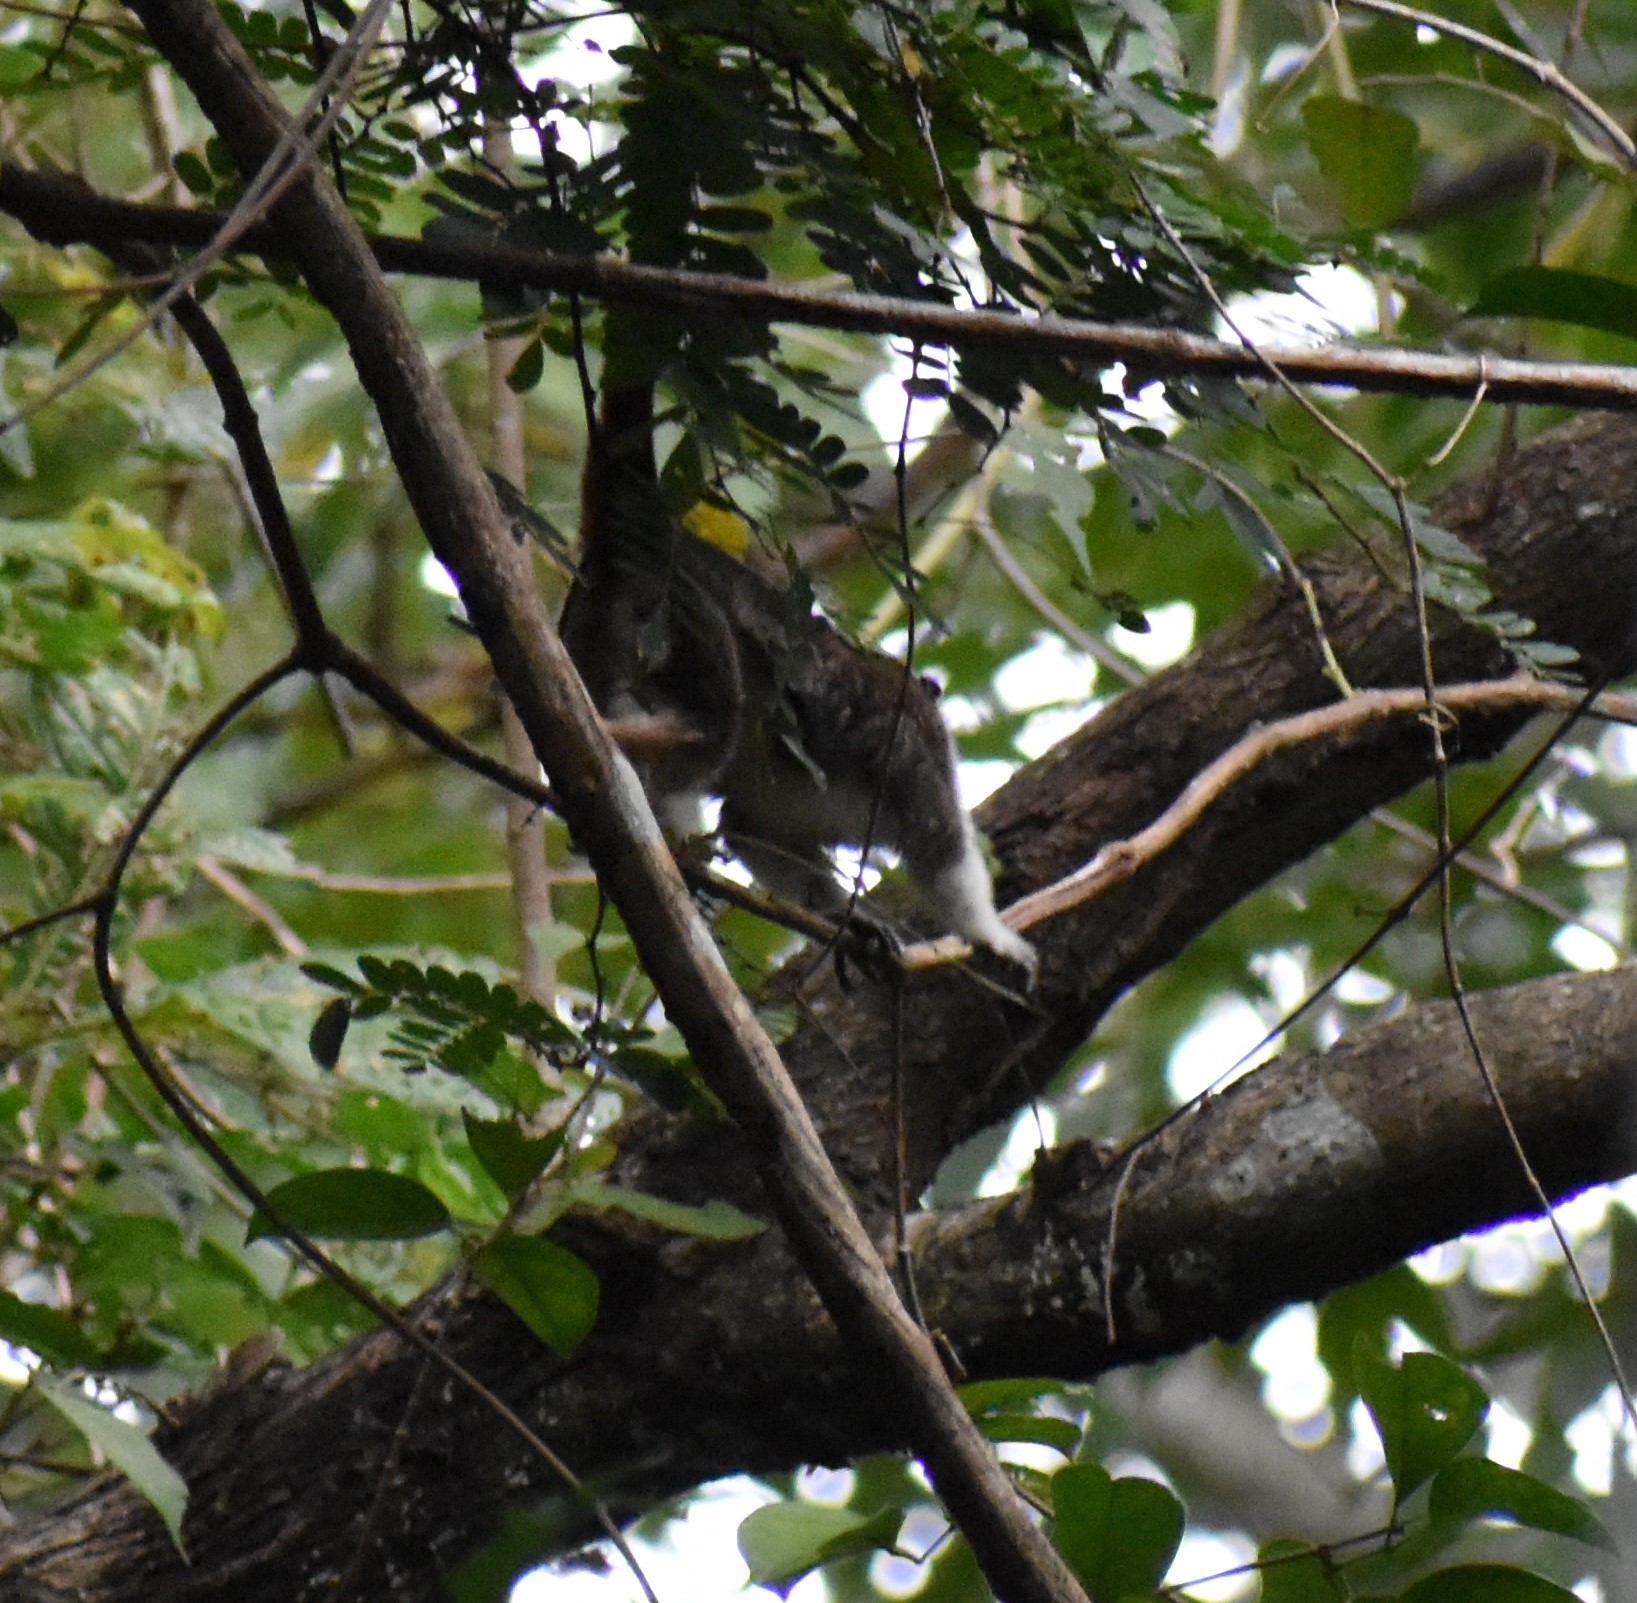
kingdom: Animalia
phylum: Chordata
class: Mammalia
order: Primates
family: Callitrichidae
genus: Saguinus
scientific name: Saguinus geoffroyi
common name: Geoffroy s tamarin
